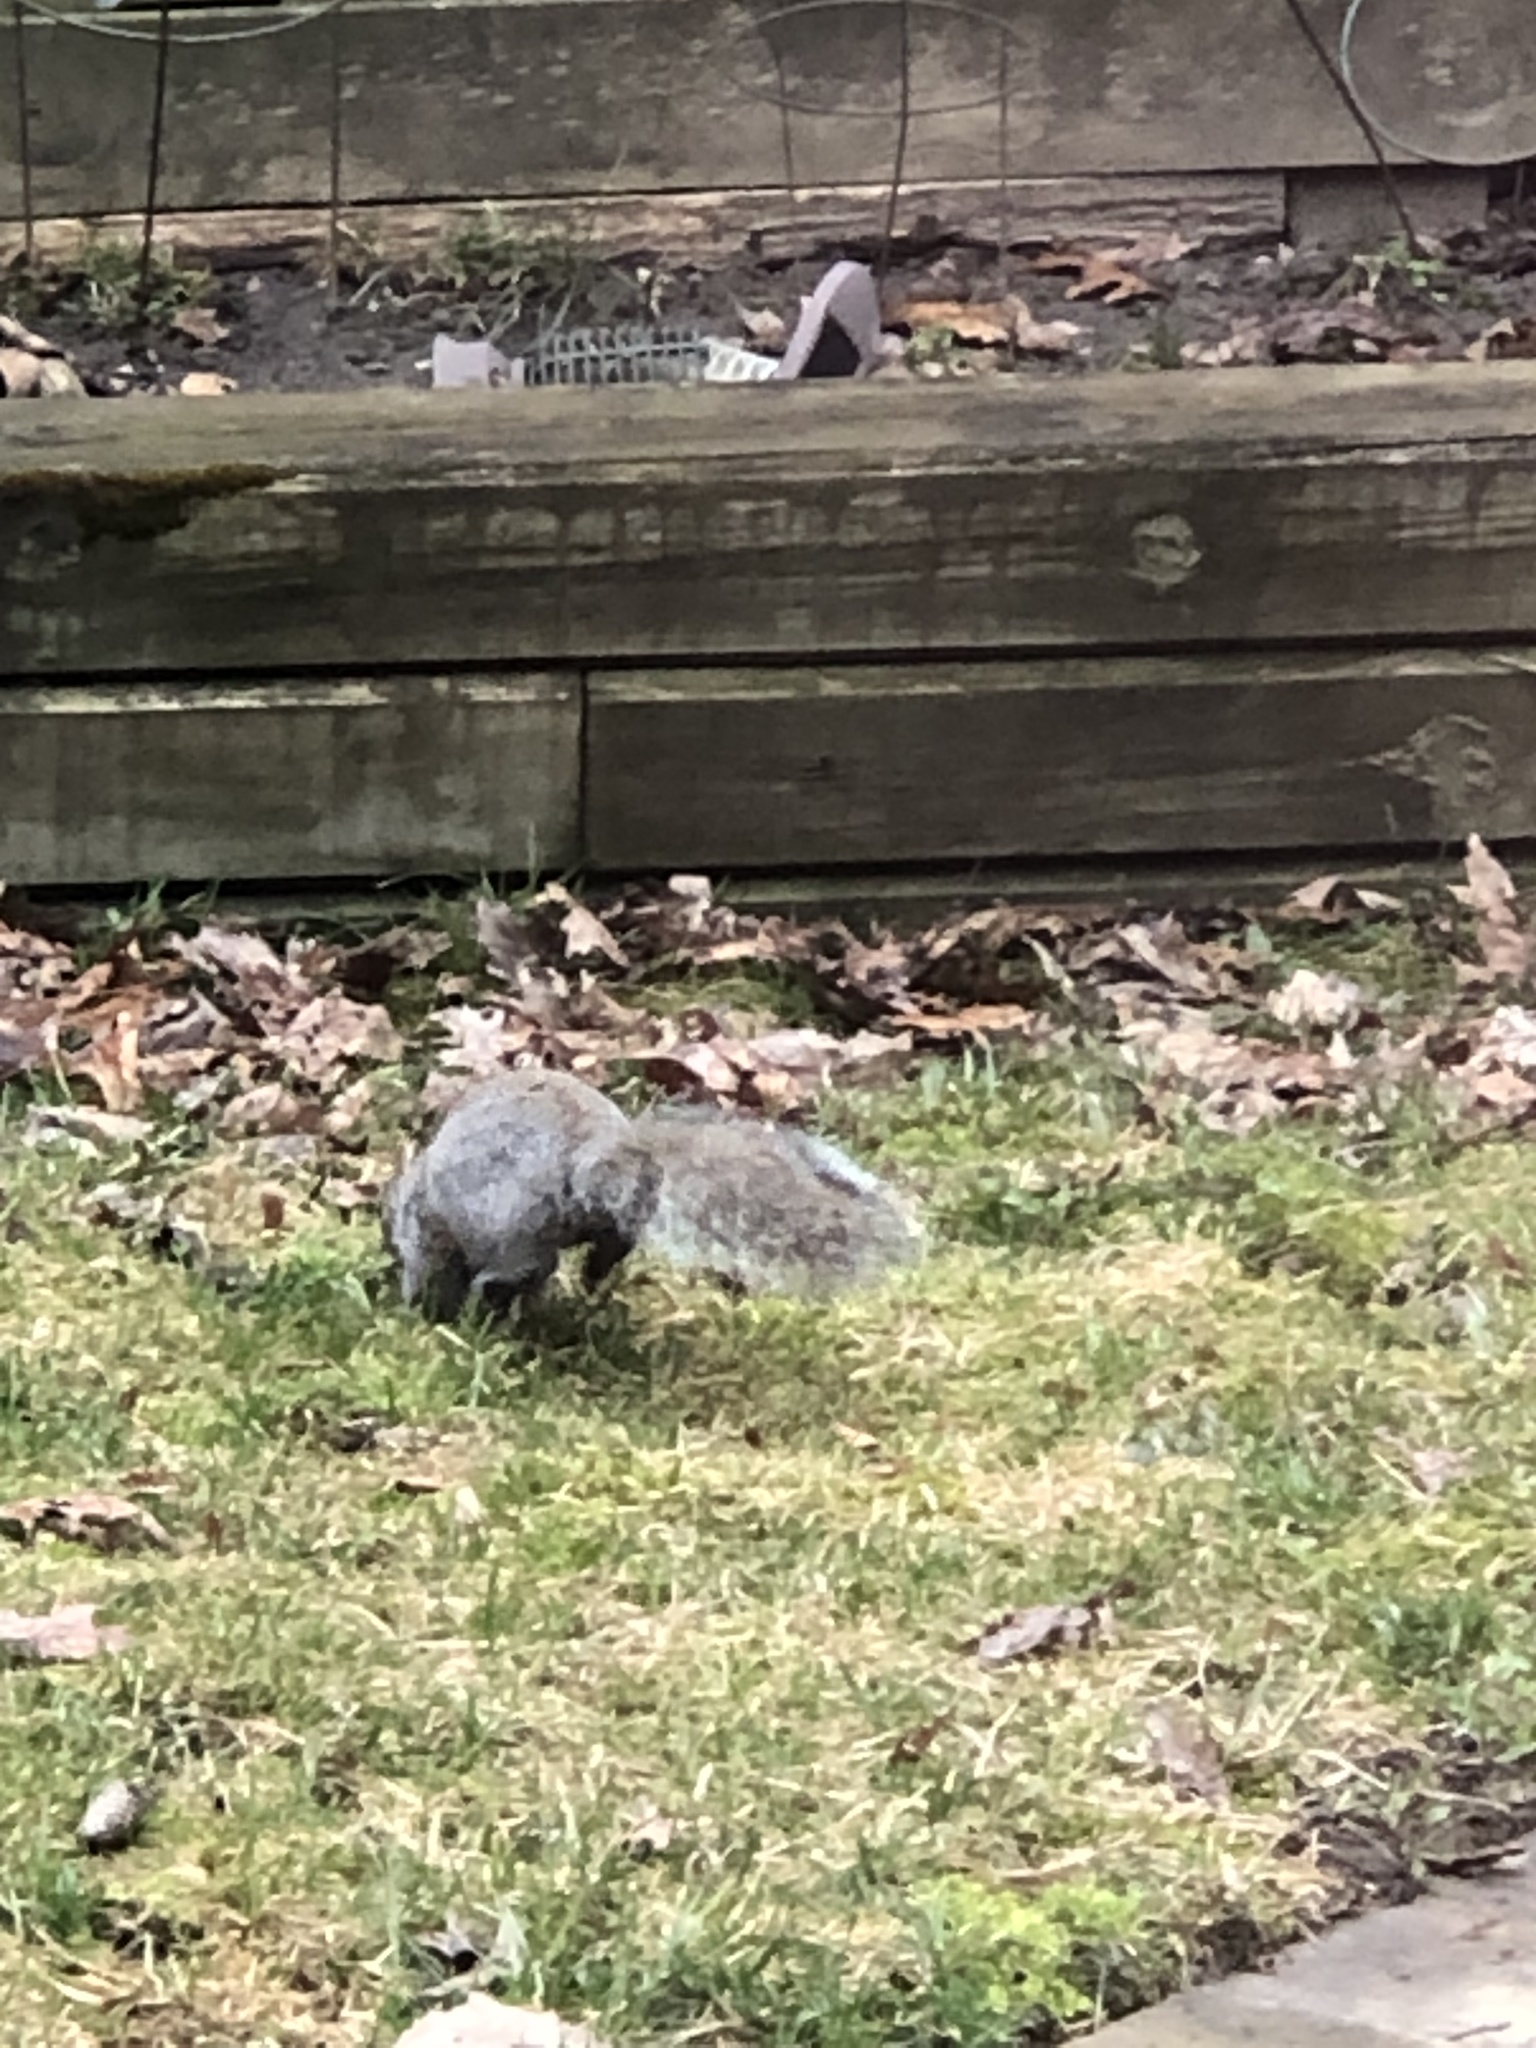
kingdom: Animalia
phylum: Chordata
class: Mammalia
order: Rodentia
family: Sciuridae
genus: Sciurus
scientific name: Sciurus carolinensis
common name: Eastern gray squirrel
